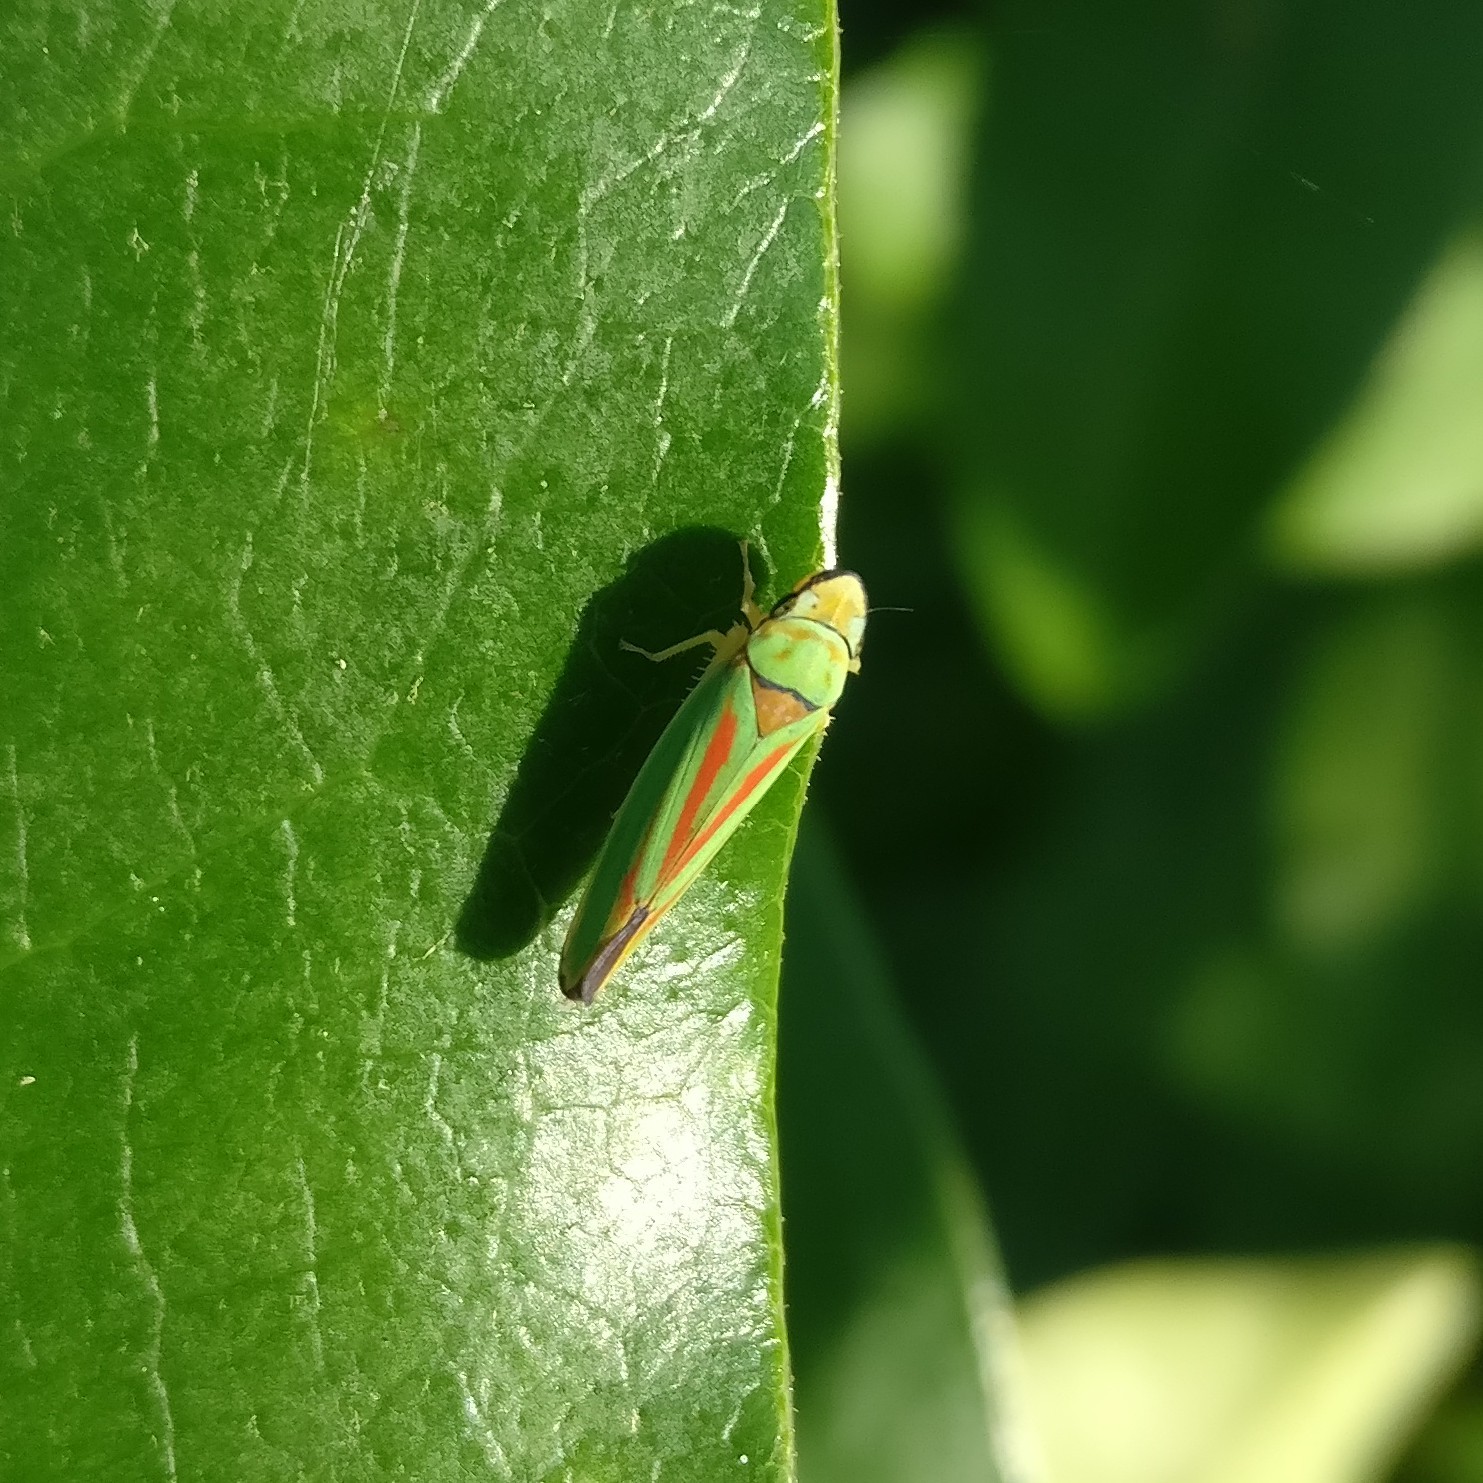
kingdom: Animalia
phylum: Arthropoda
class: Insecta
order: Hemiptera
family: Cicadellidae
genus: Graphocephala
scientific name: Graphocephala fennahi
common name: Rhododendron leafhopper
